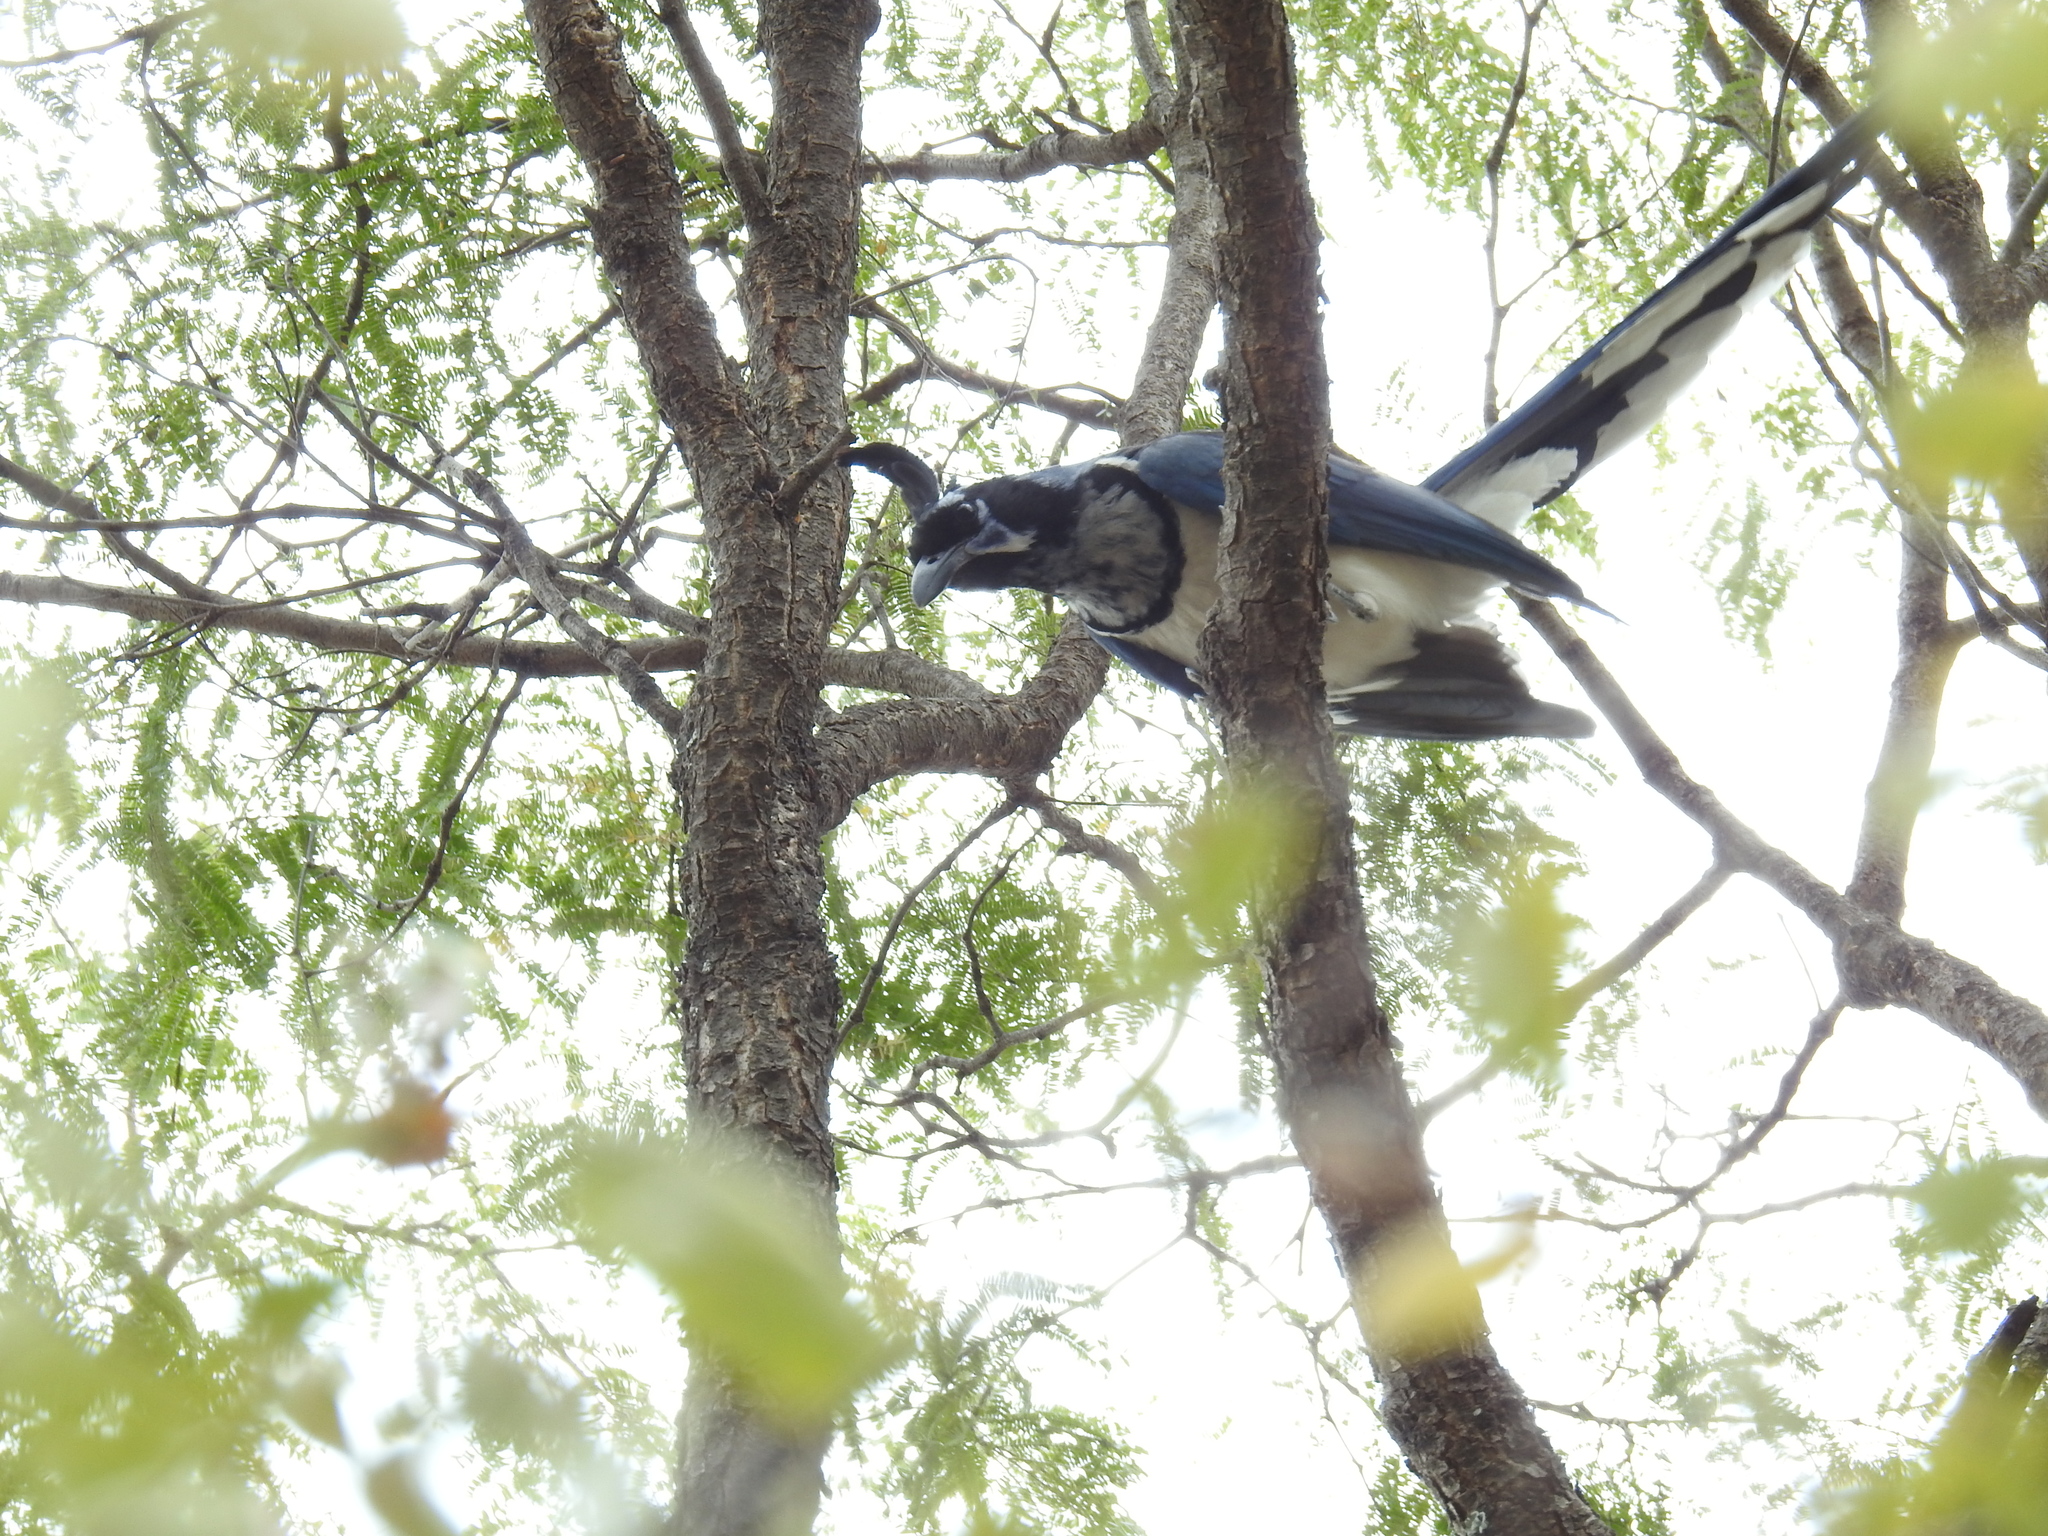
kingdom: Animalia
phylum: Chordata
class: Aves
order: Passeriformes
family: Corvidae
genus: Calocitta
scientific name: Calocitta colliei
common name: Black-throated magpie-jay
